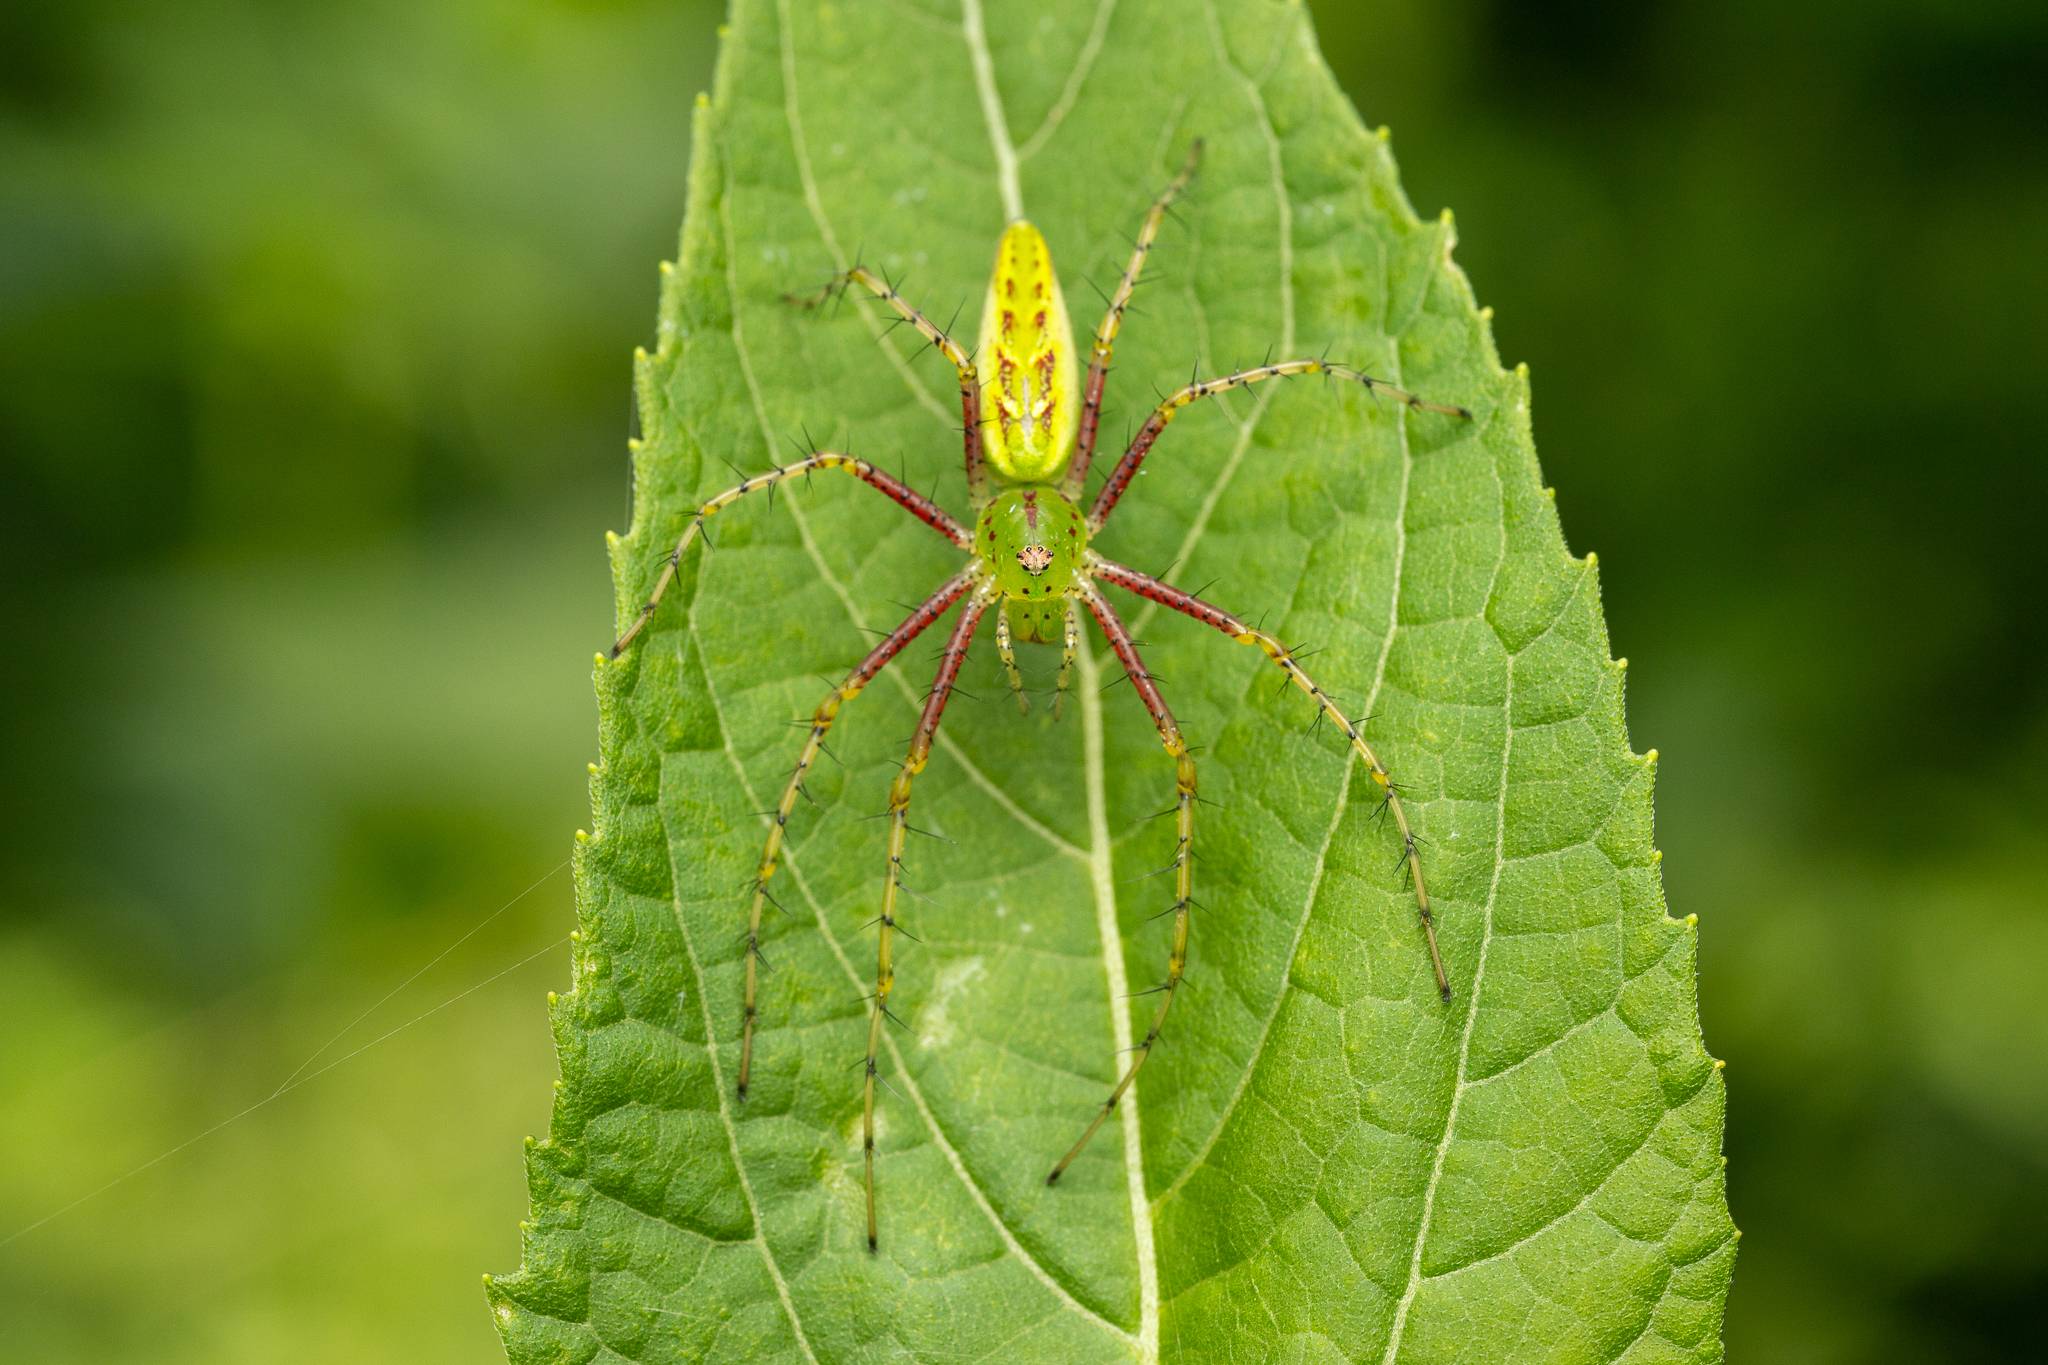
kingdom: Animalia
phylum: Arthropoda
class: Arachnida
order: Araneae
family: Oxyopidae
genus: Peucetia
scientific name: Peucetia viridans
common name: Lynx spiders
